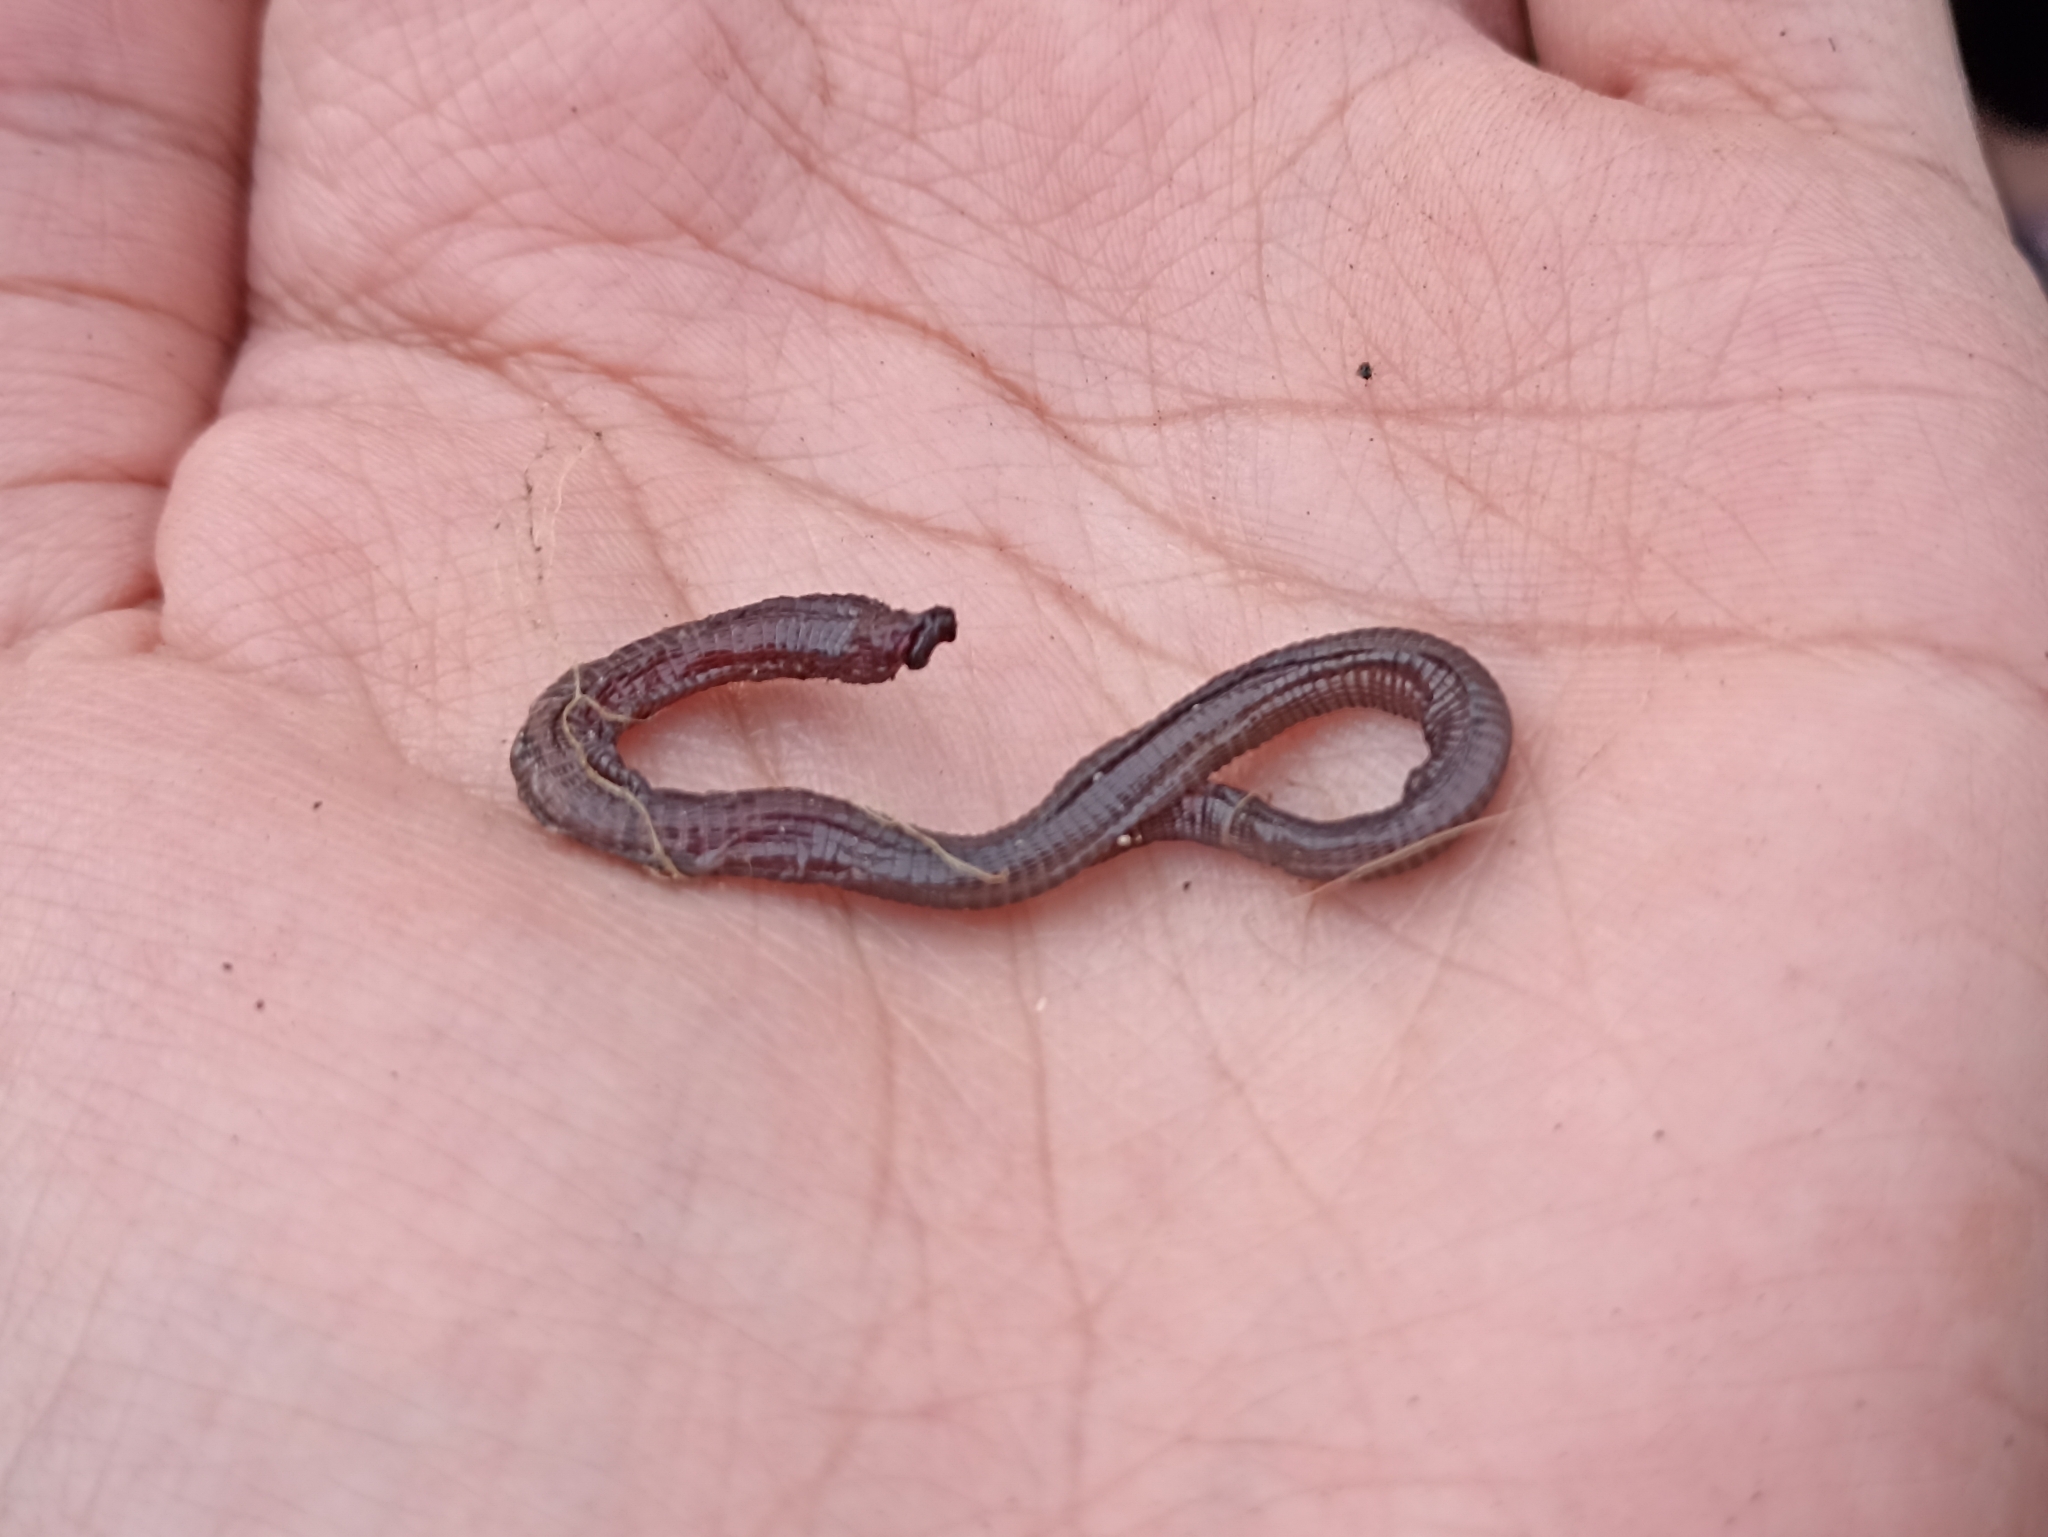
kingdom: Animalia
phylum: Chordata
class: Squamata
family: Blanidae
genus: Blanus
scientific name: Blanus vandellii
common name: Vandelli's worm lizard
